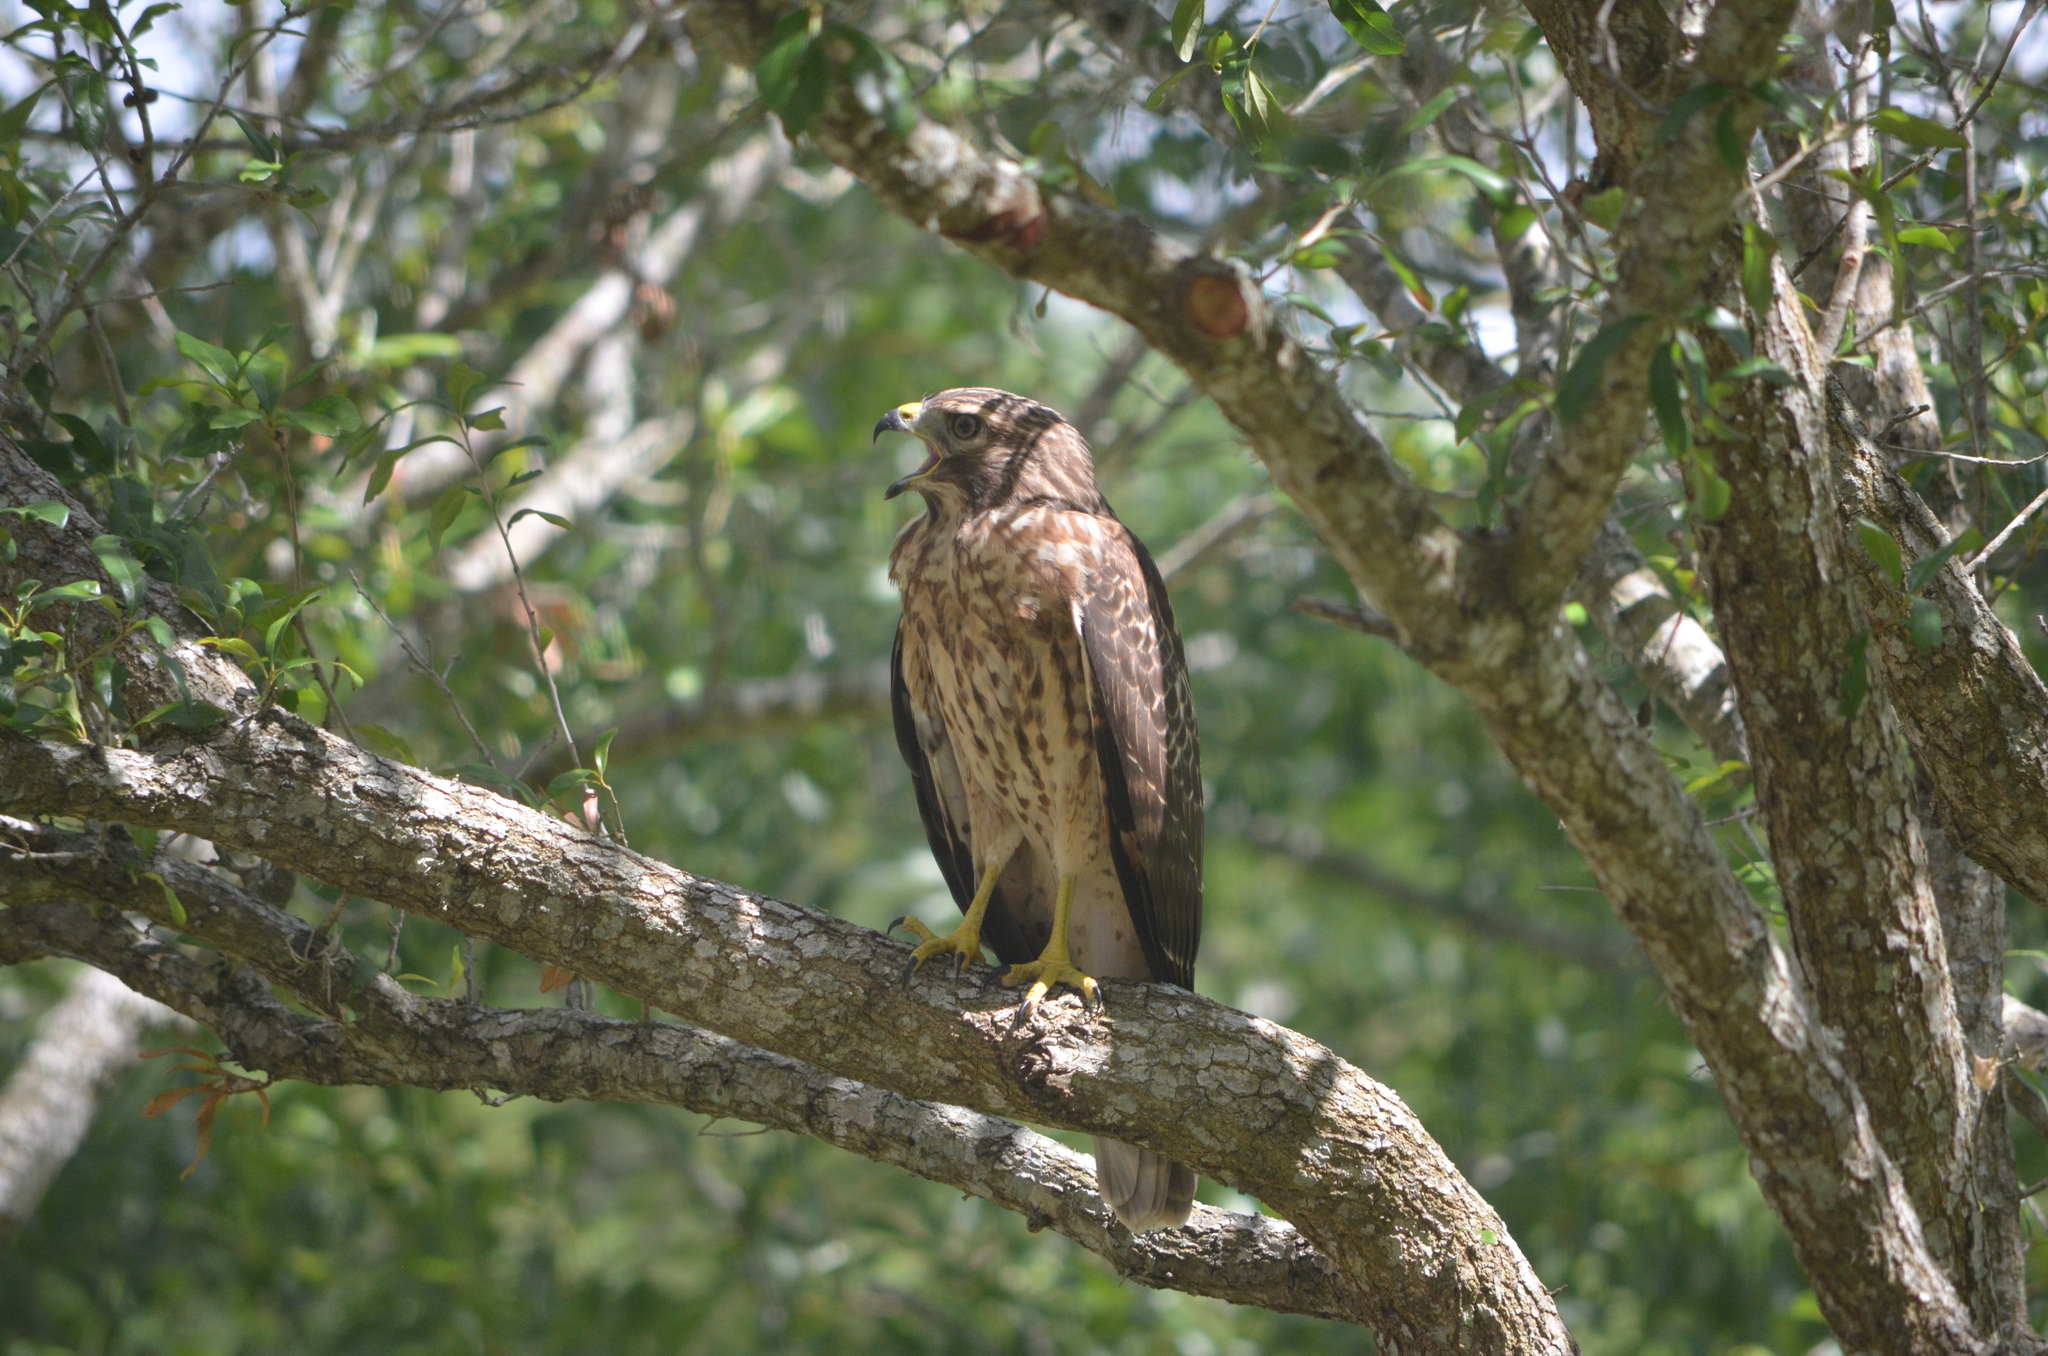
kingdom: Animalia
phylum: Chordata
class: Aves
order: Accipitriformes
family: Accipitridae
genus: Buteo
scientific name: Buteo lineatus
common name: Red-shouldered hawk
